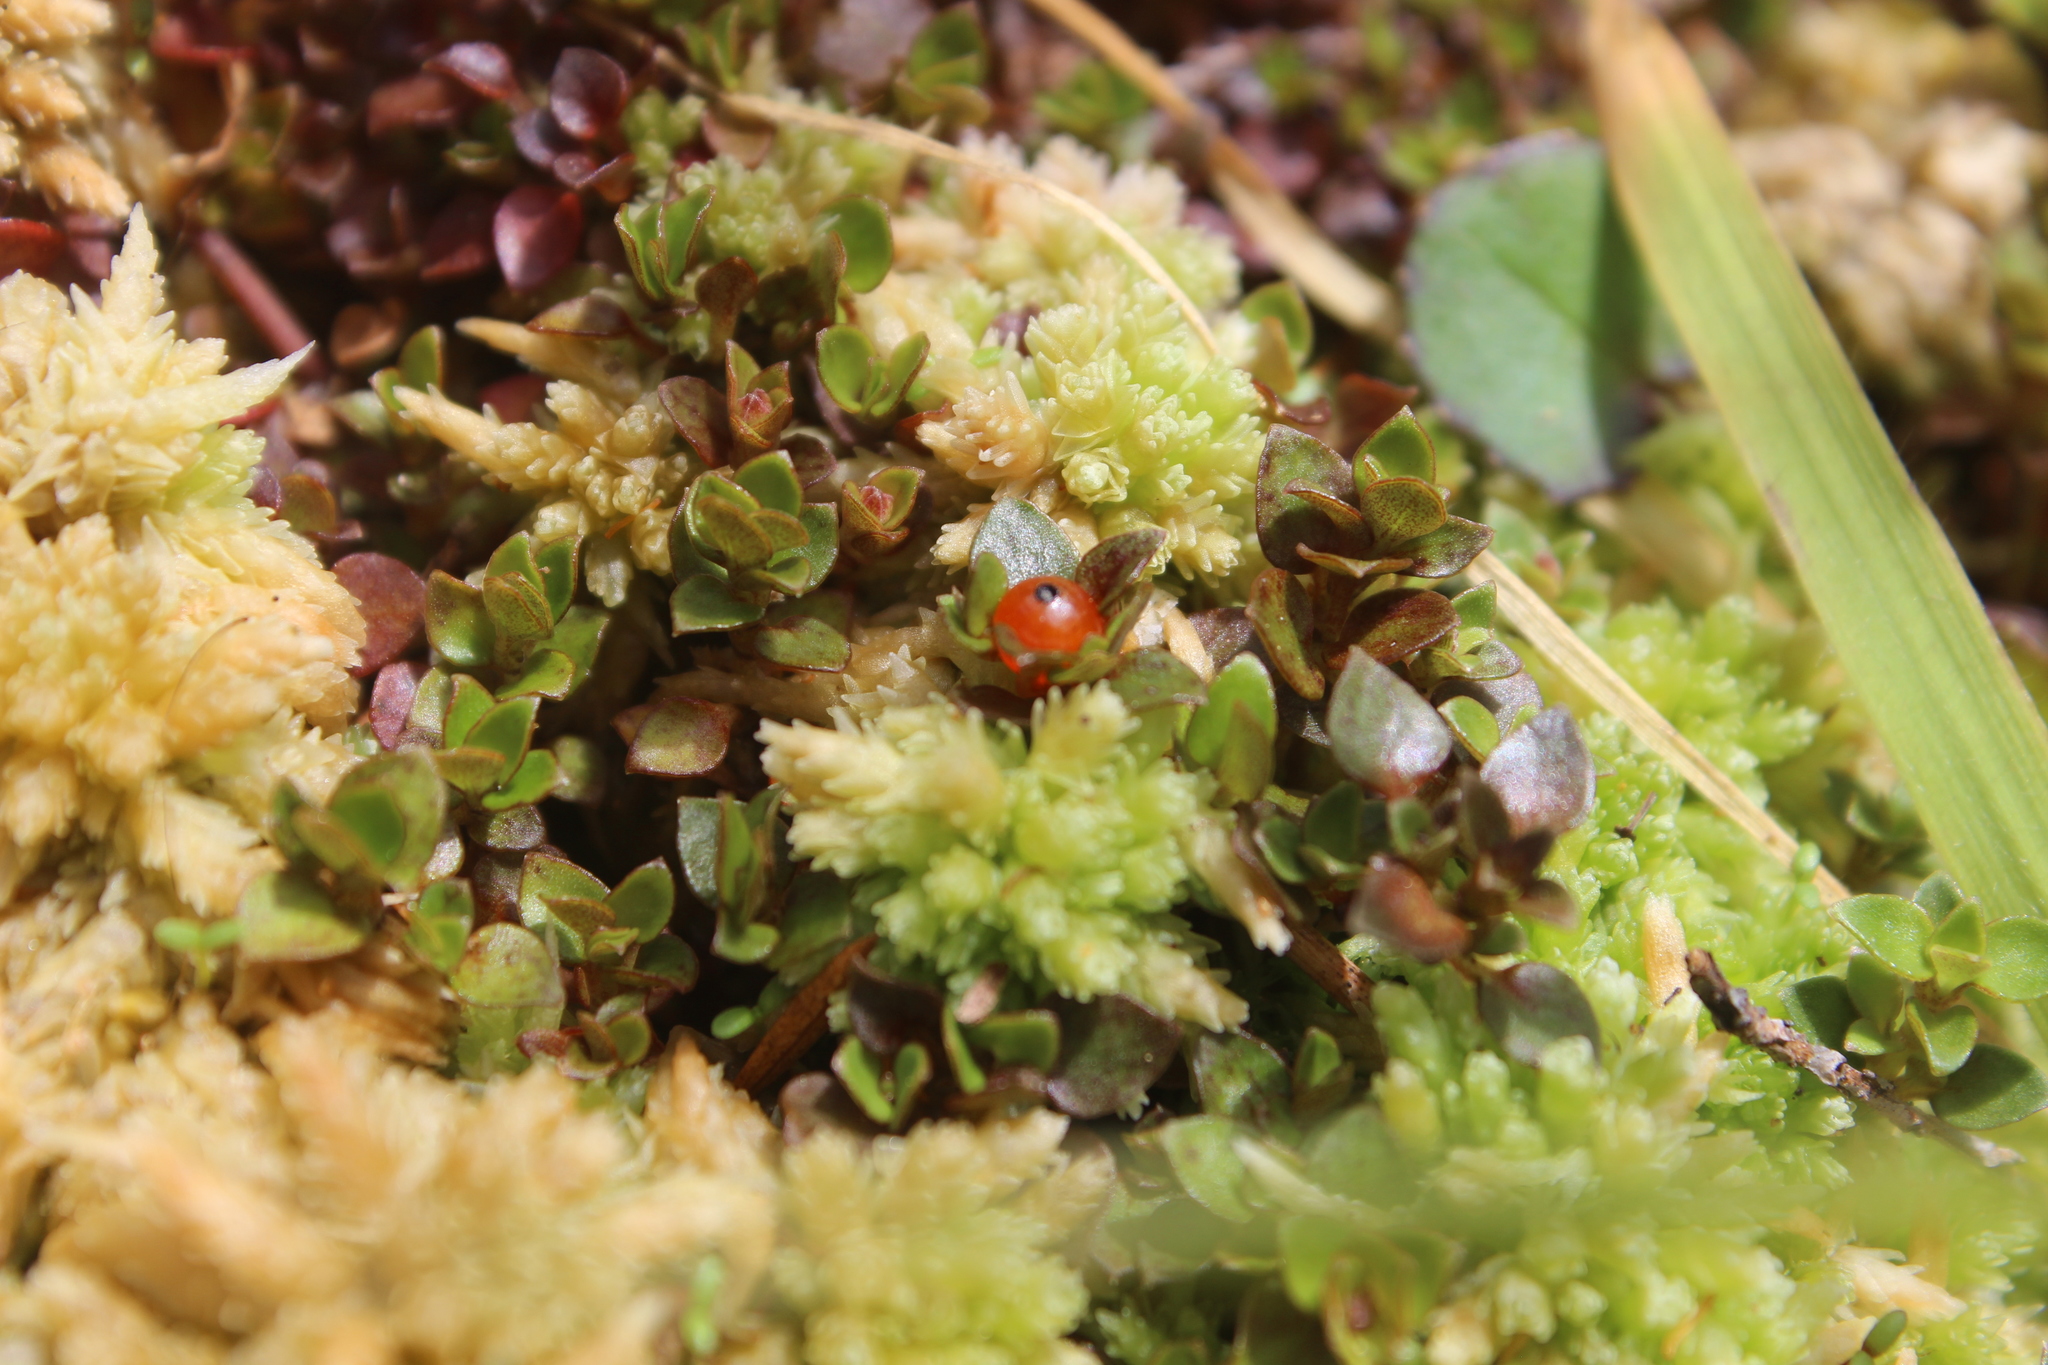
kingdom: Plantae
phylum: Tracheophyta
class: Magnoliopsida
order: Gentianales
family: Rubiaceae
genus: Nertera
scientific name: Nertera granadensis
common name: Beadplant
